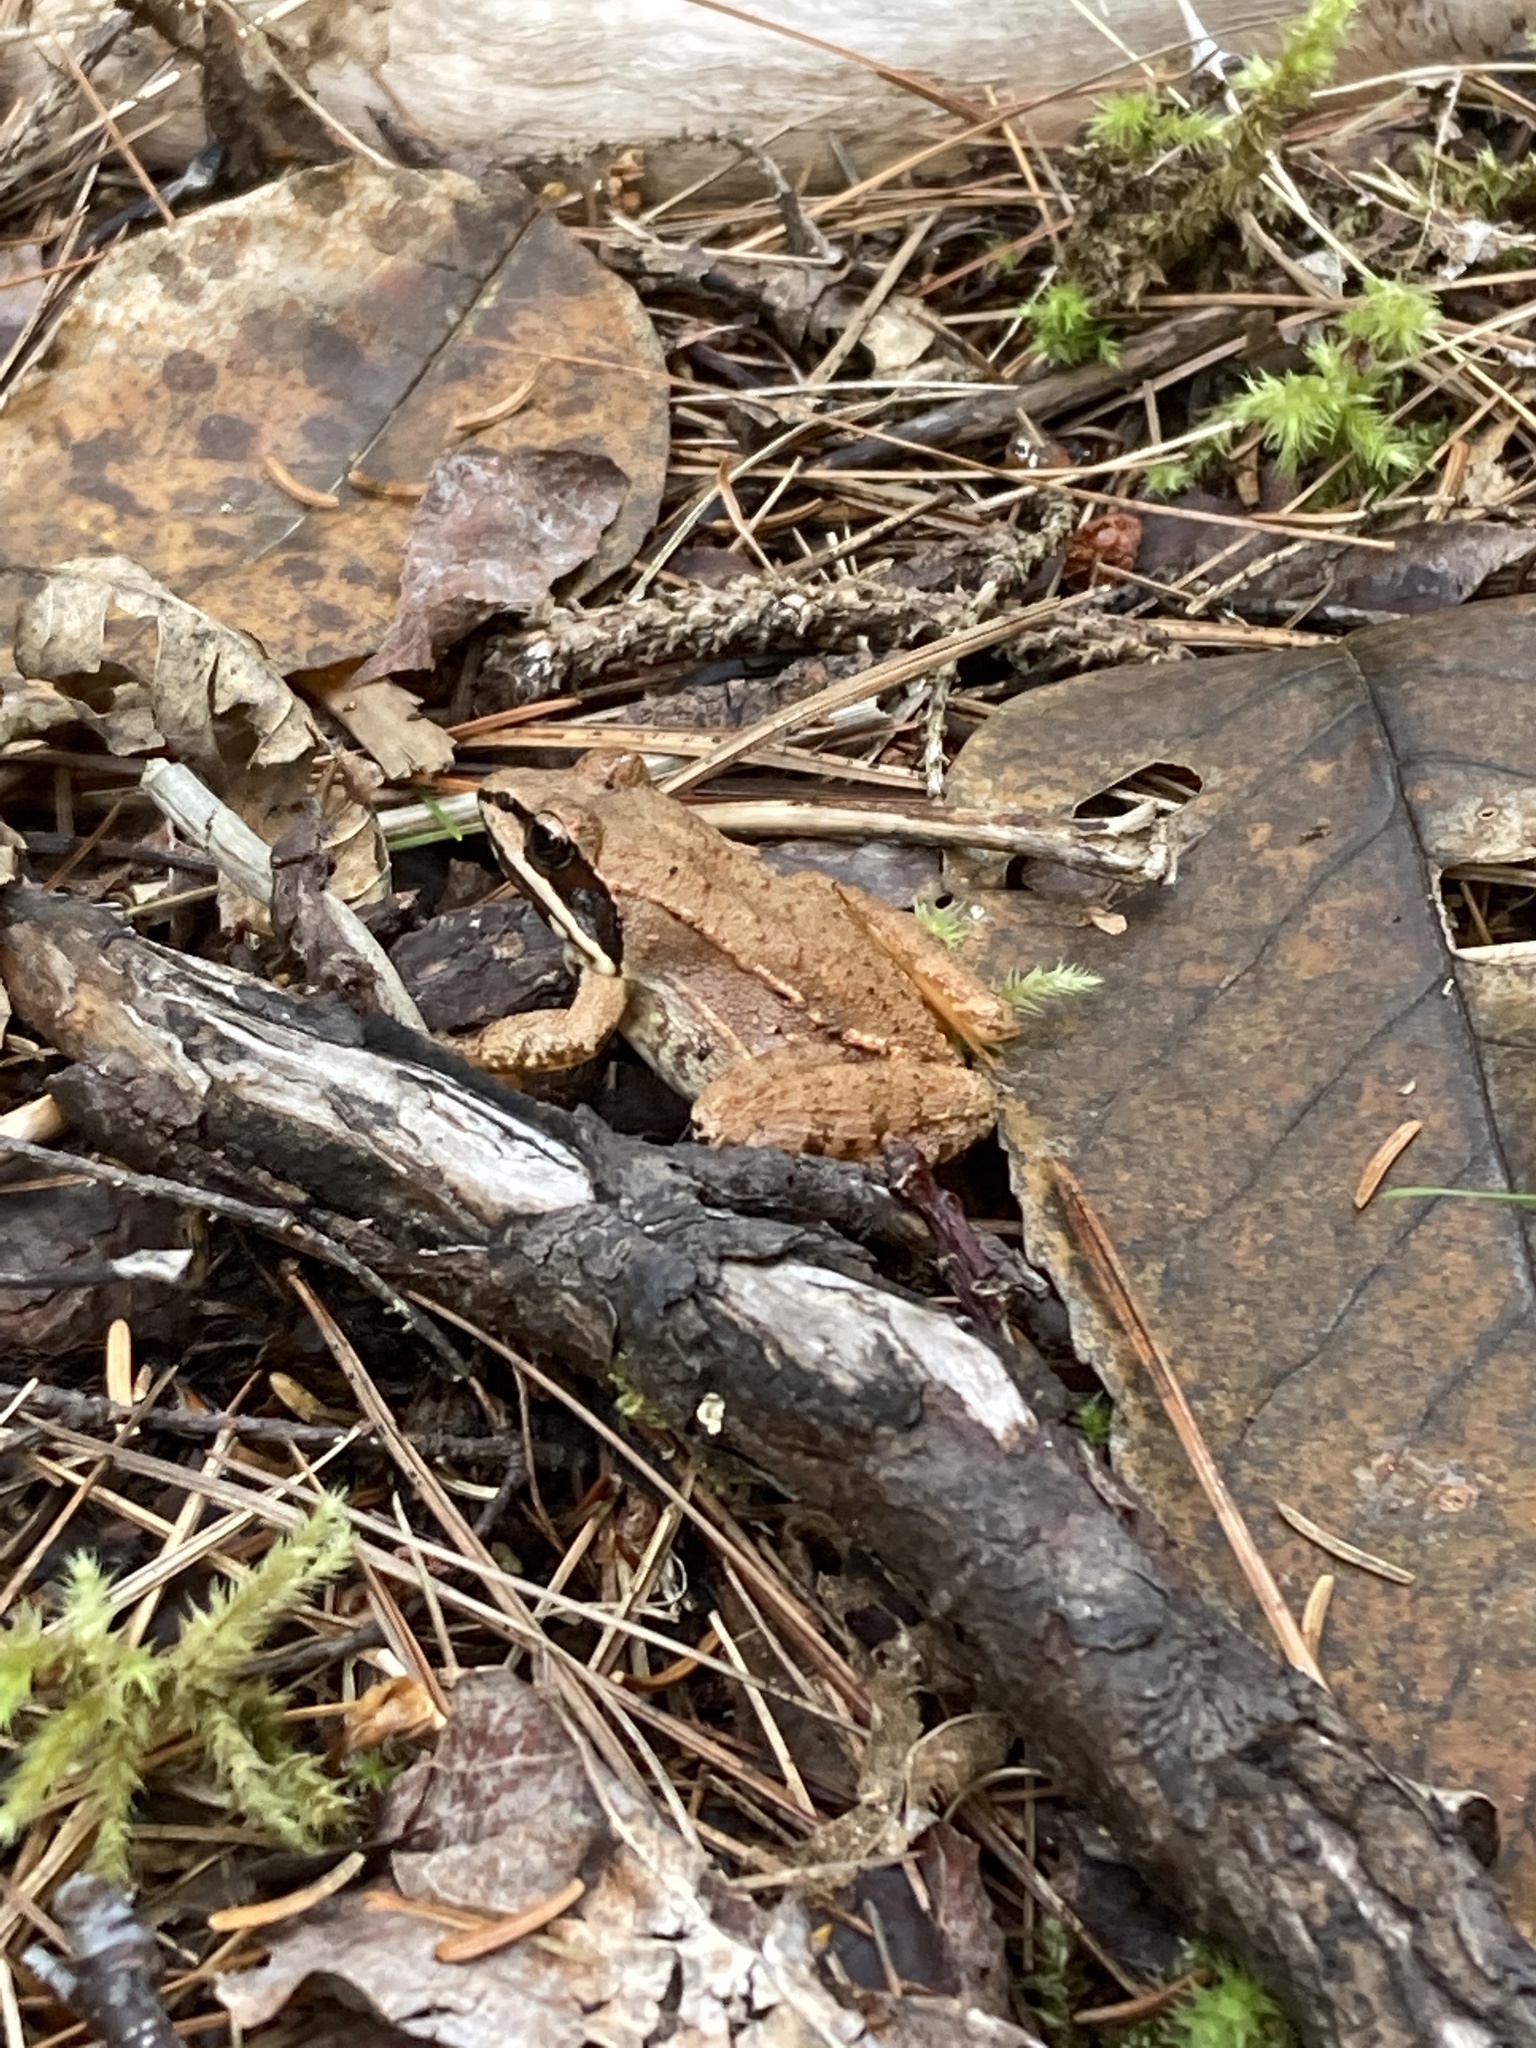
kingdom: Animalia
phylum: Chordata
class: Amphibia
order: Anura
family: Ranidae
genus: Lithobates
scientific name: Lithobates sylvaticus
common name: Wood frog
